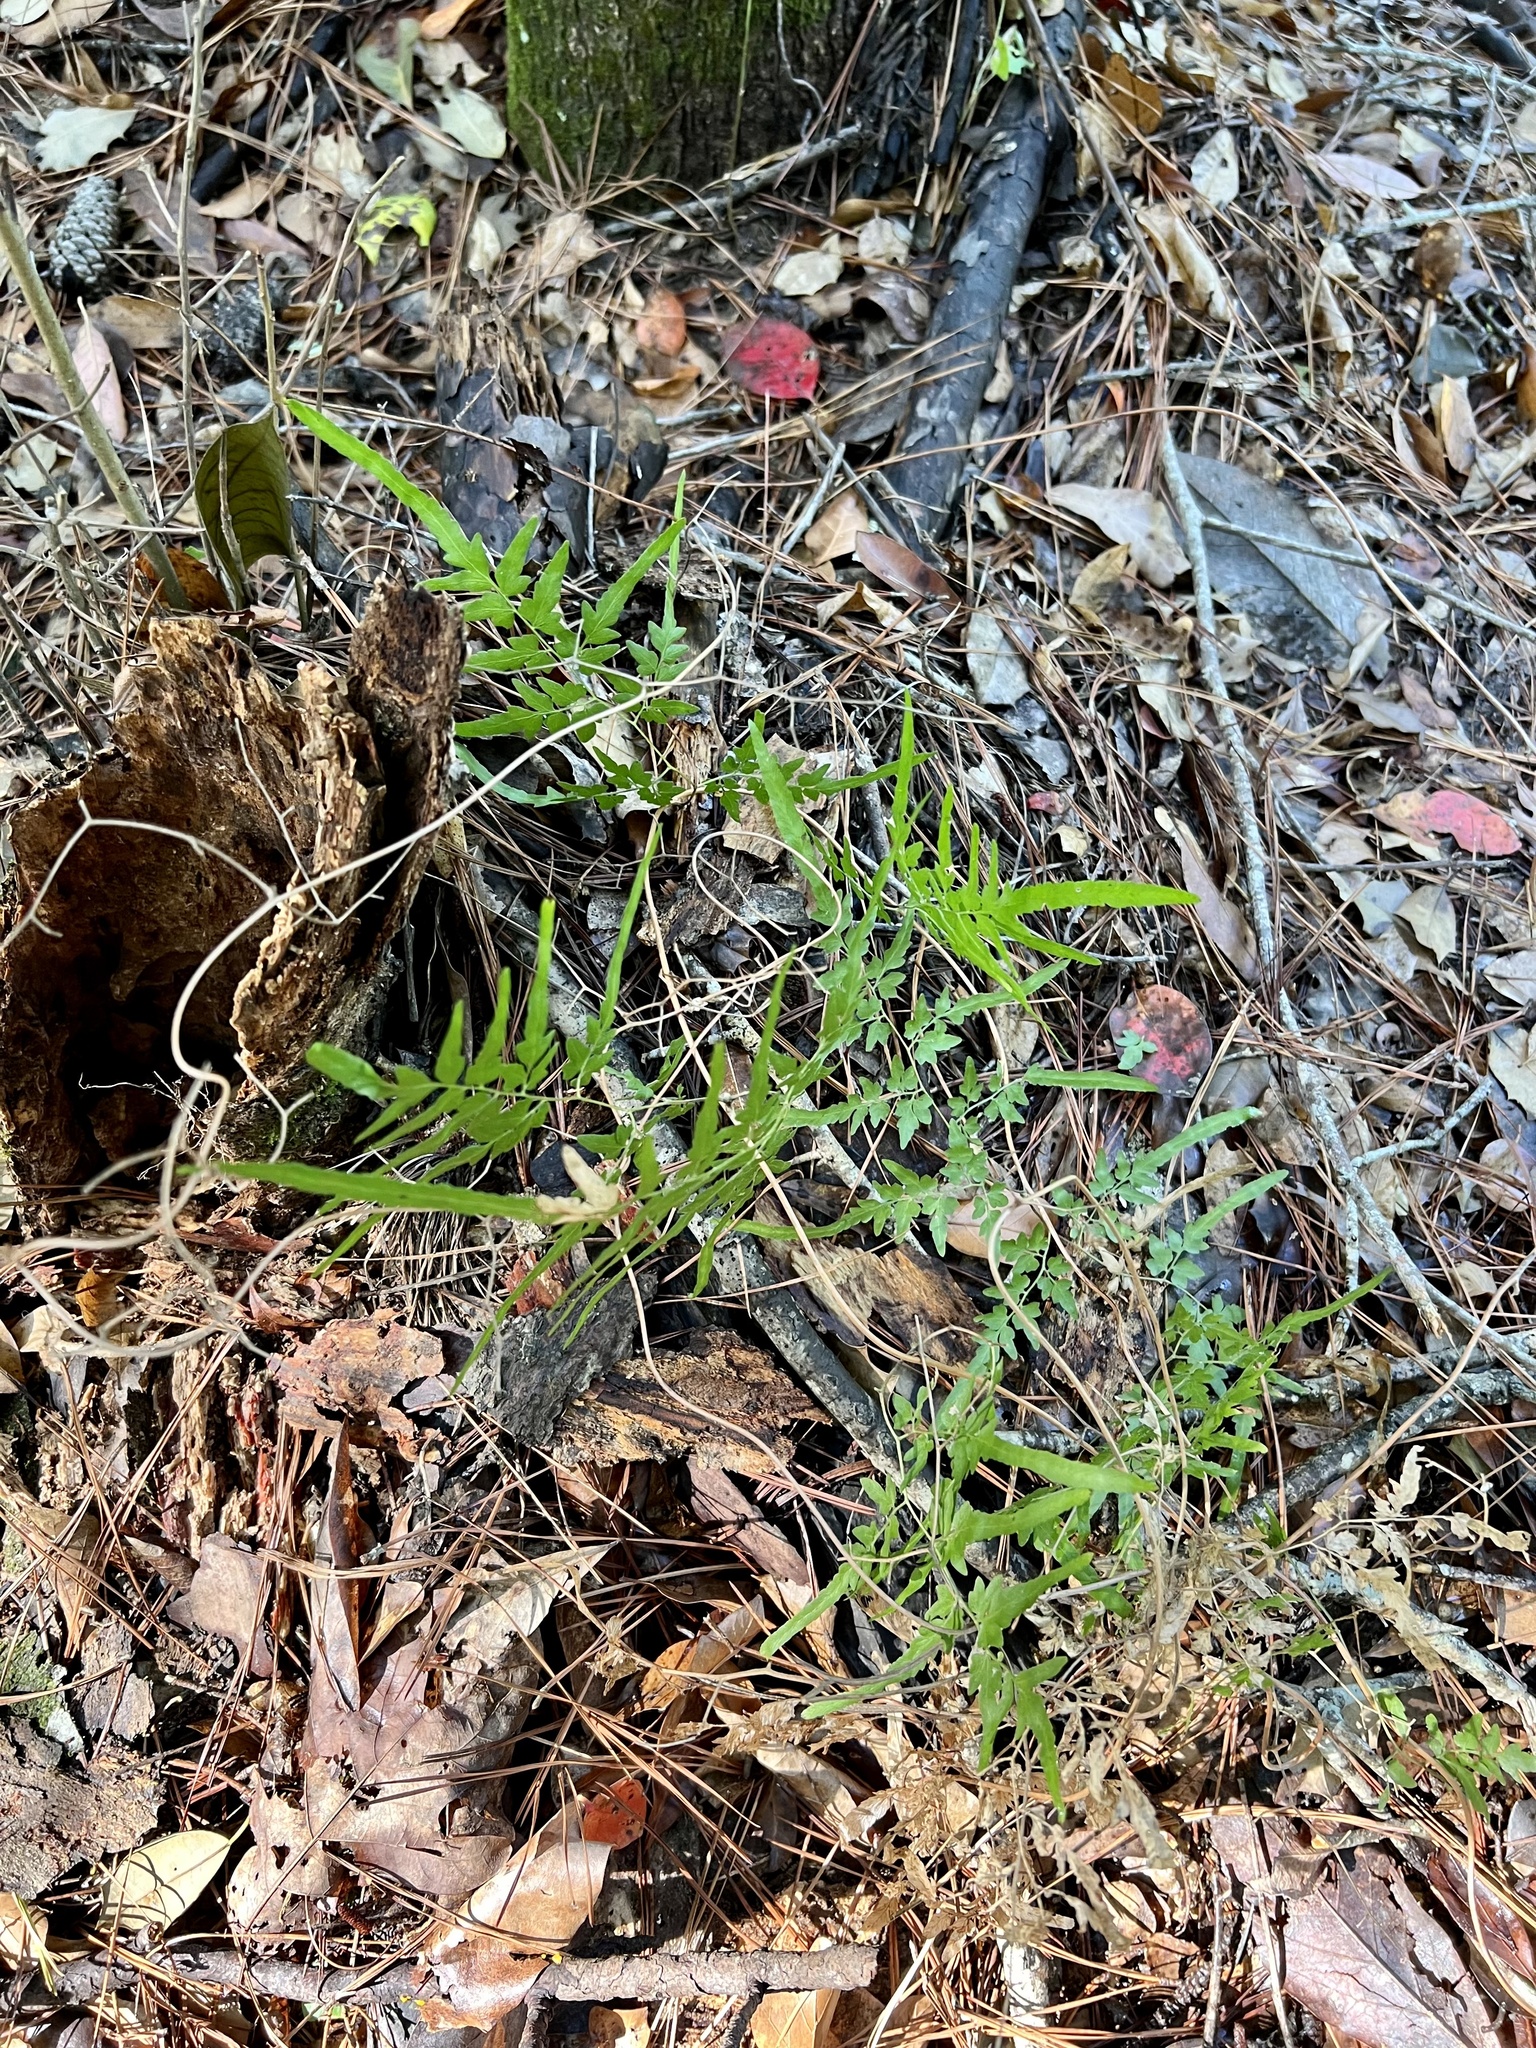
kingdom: Plantae
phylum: Tracheophyta
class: Polypodiopsida
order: Schizaeales
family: Lygodiaceae
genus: Lygodium
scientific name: Lygodium japonicum
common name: Japanese climbing fern
